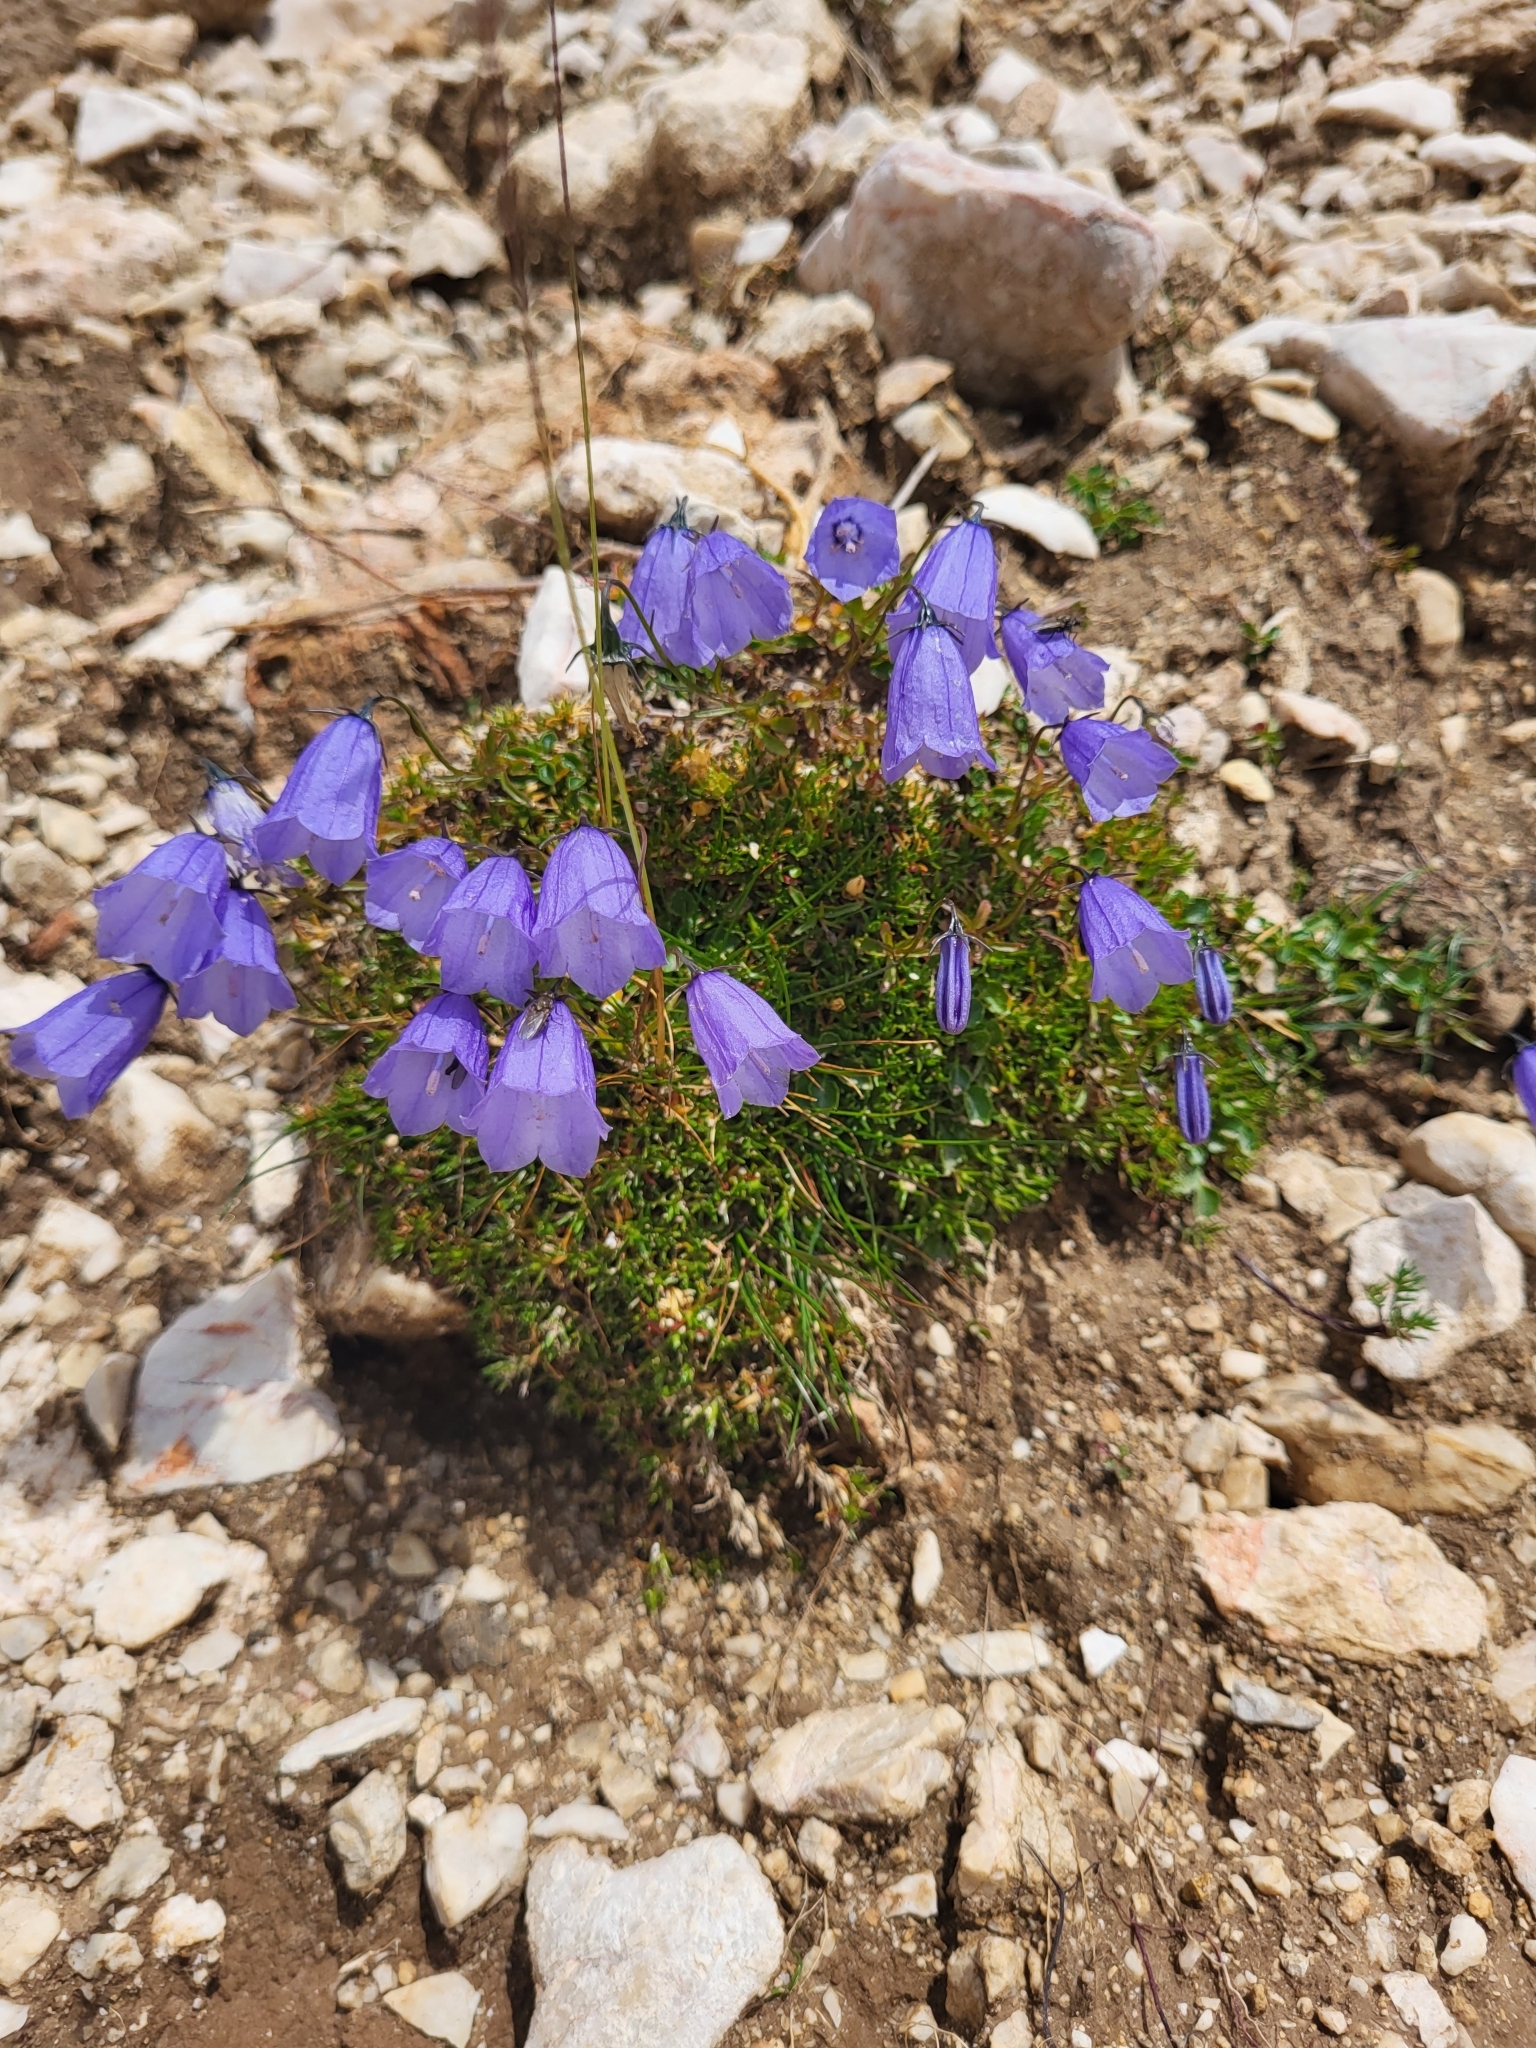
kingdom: Plantae
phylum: Tracheophyta
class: Magnoliopsida
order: Asterales
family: Campanulaceae
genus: Campanula
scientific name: Campanula cochleariifolia
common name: Fairies'-thimbles
